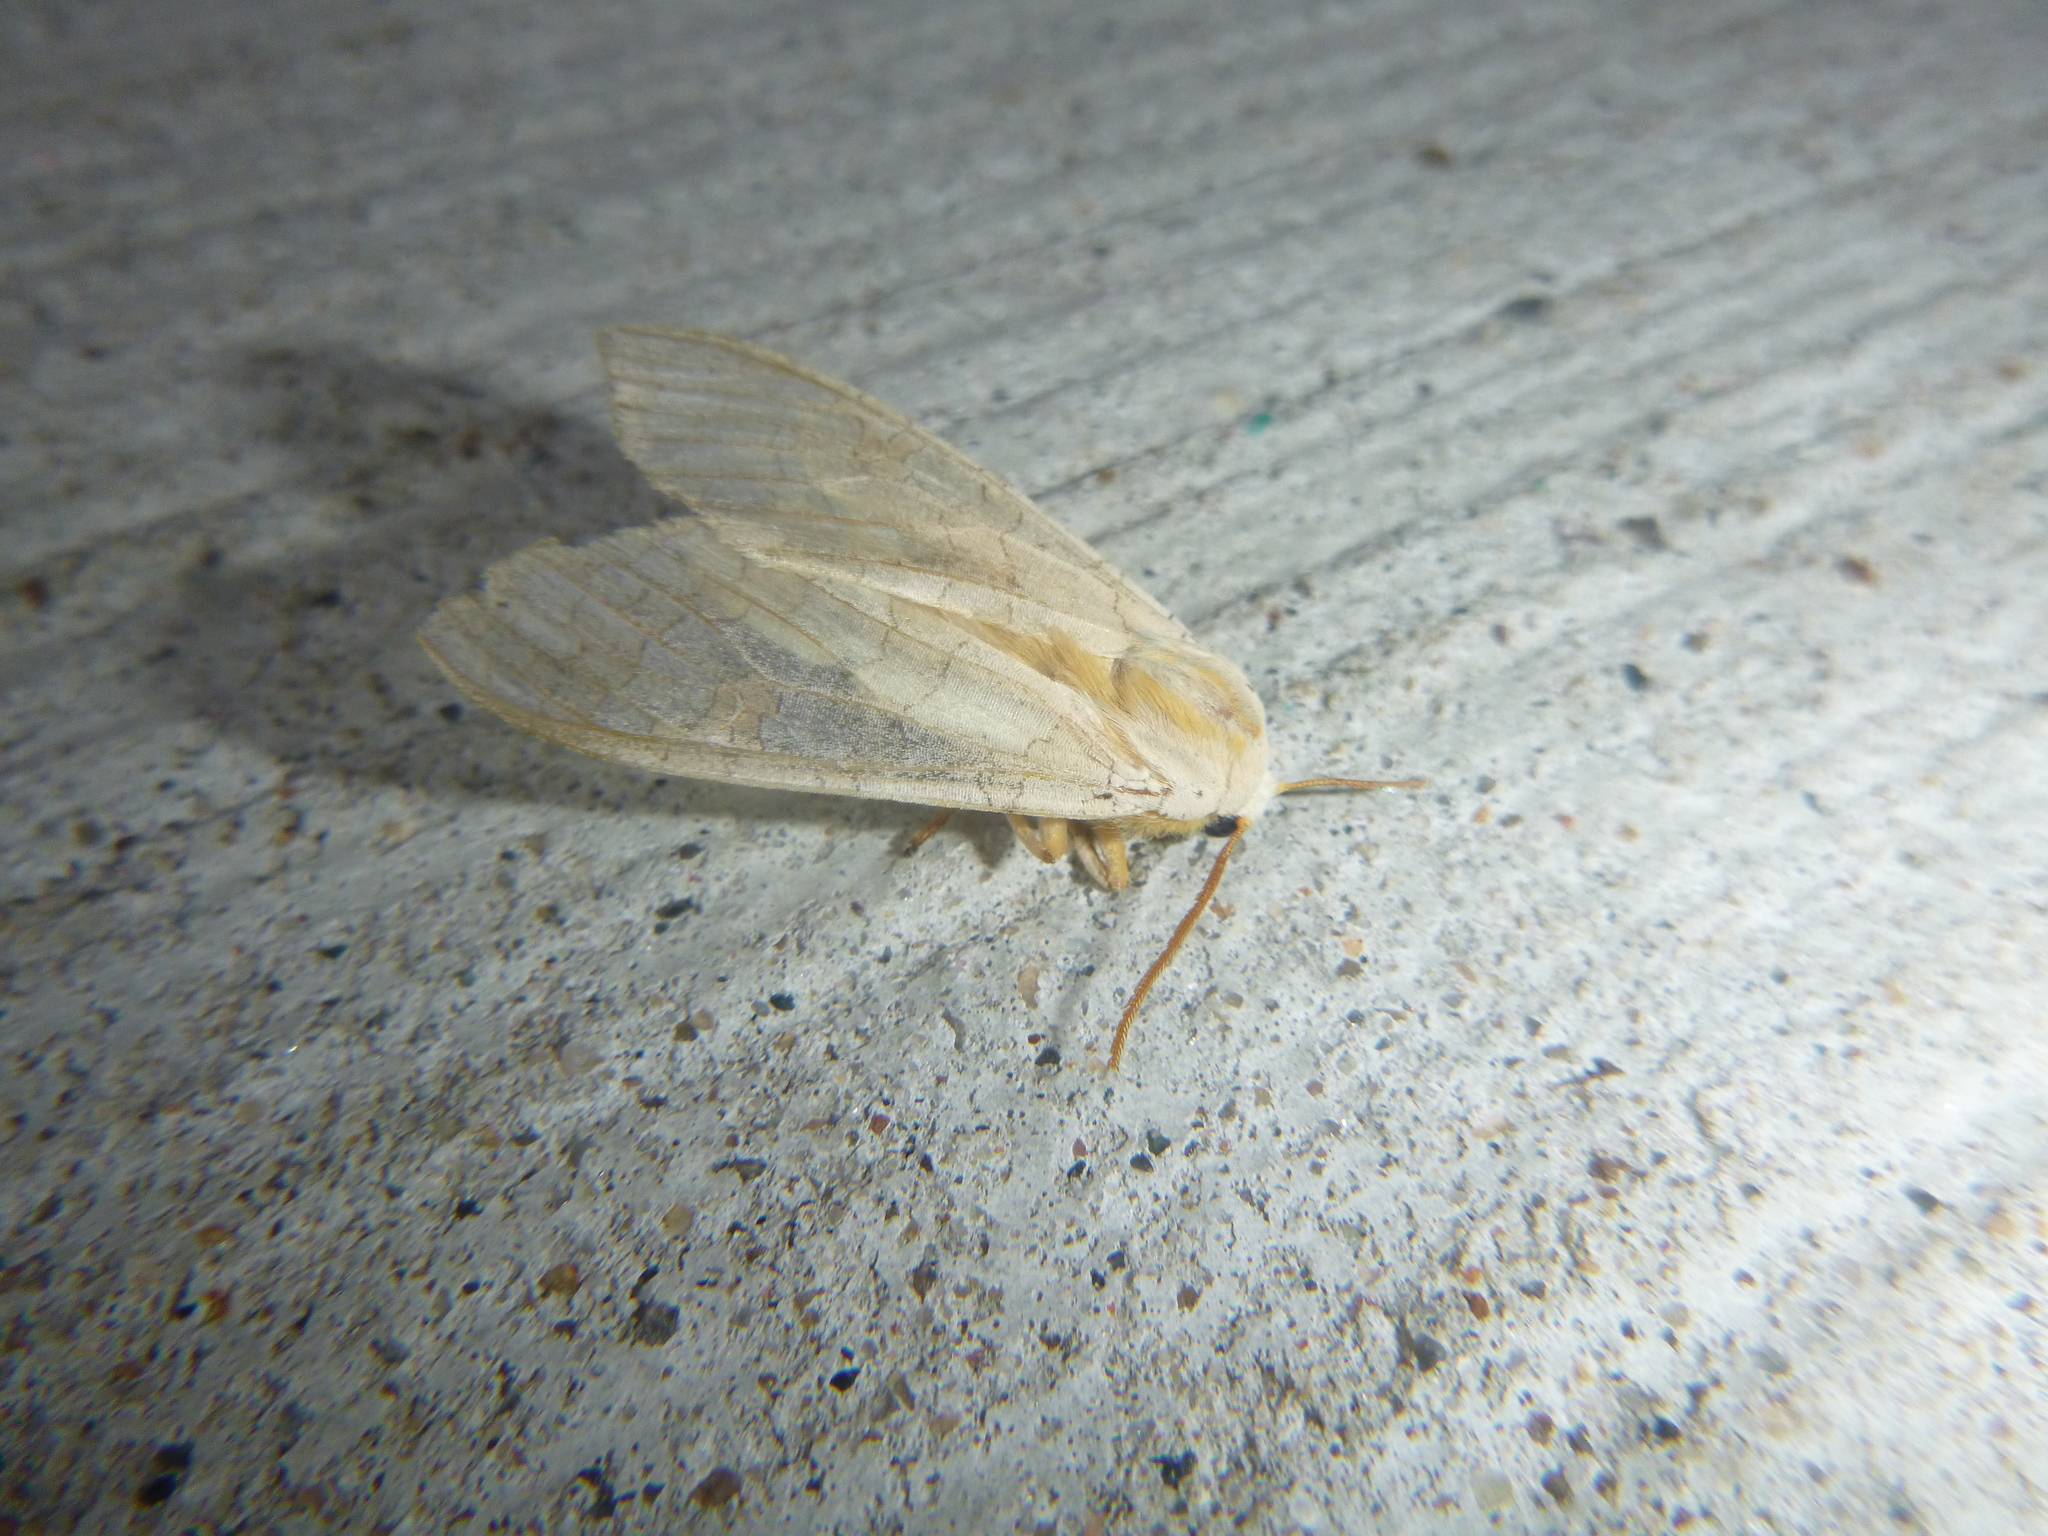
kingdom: Animalia
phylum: Arthropoda
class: Insecta
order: Lepidoptera
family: Erebidae
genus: Halysidota
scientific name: Halysidota tessellaris
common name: Banded tussock moth
